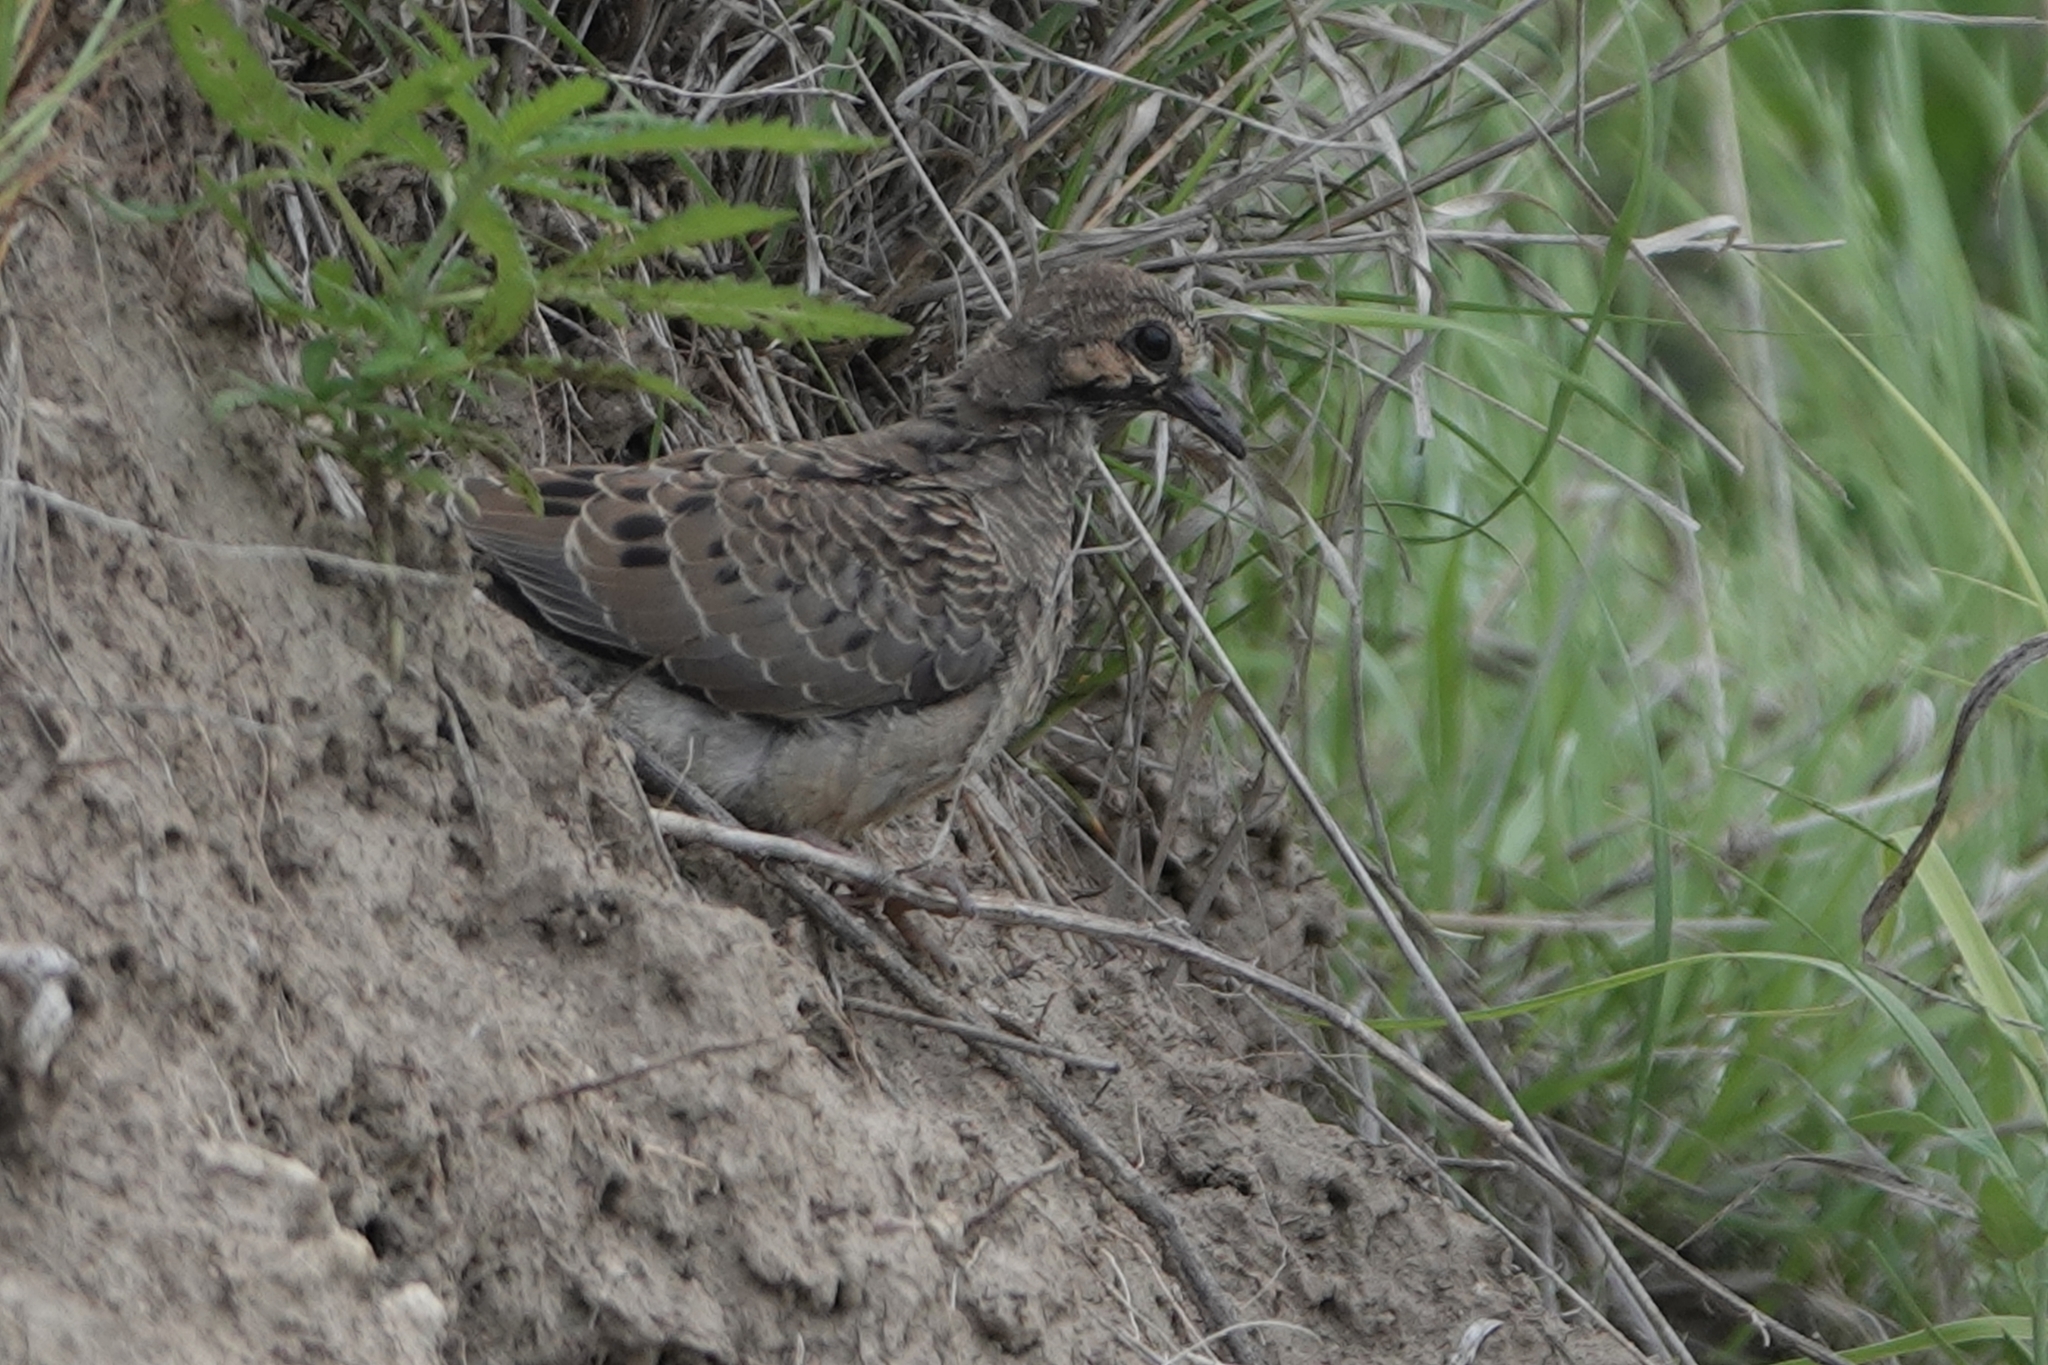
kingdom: Animalia
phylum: Chordata
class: Aves
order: Columbiformes
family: Columbidae
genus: Zenaida
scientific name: Zenaida macroura
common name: Mourning dove
